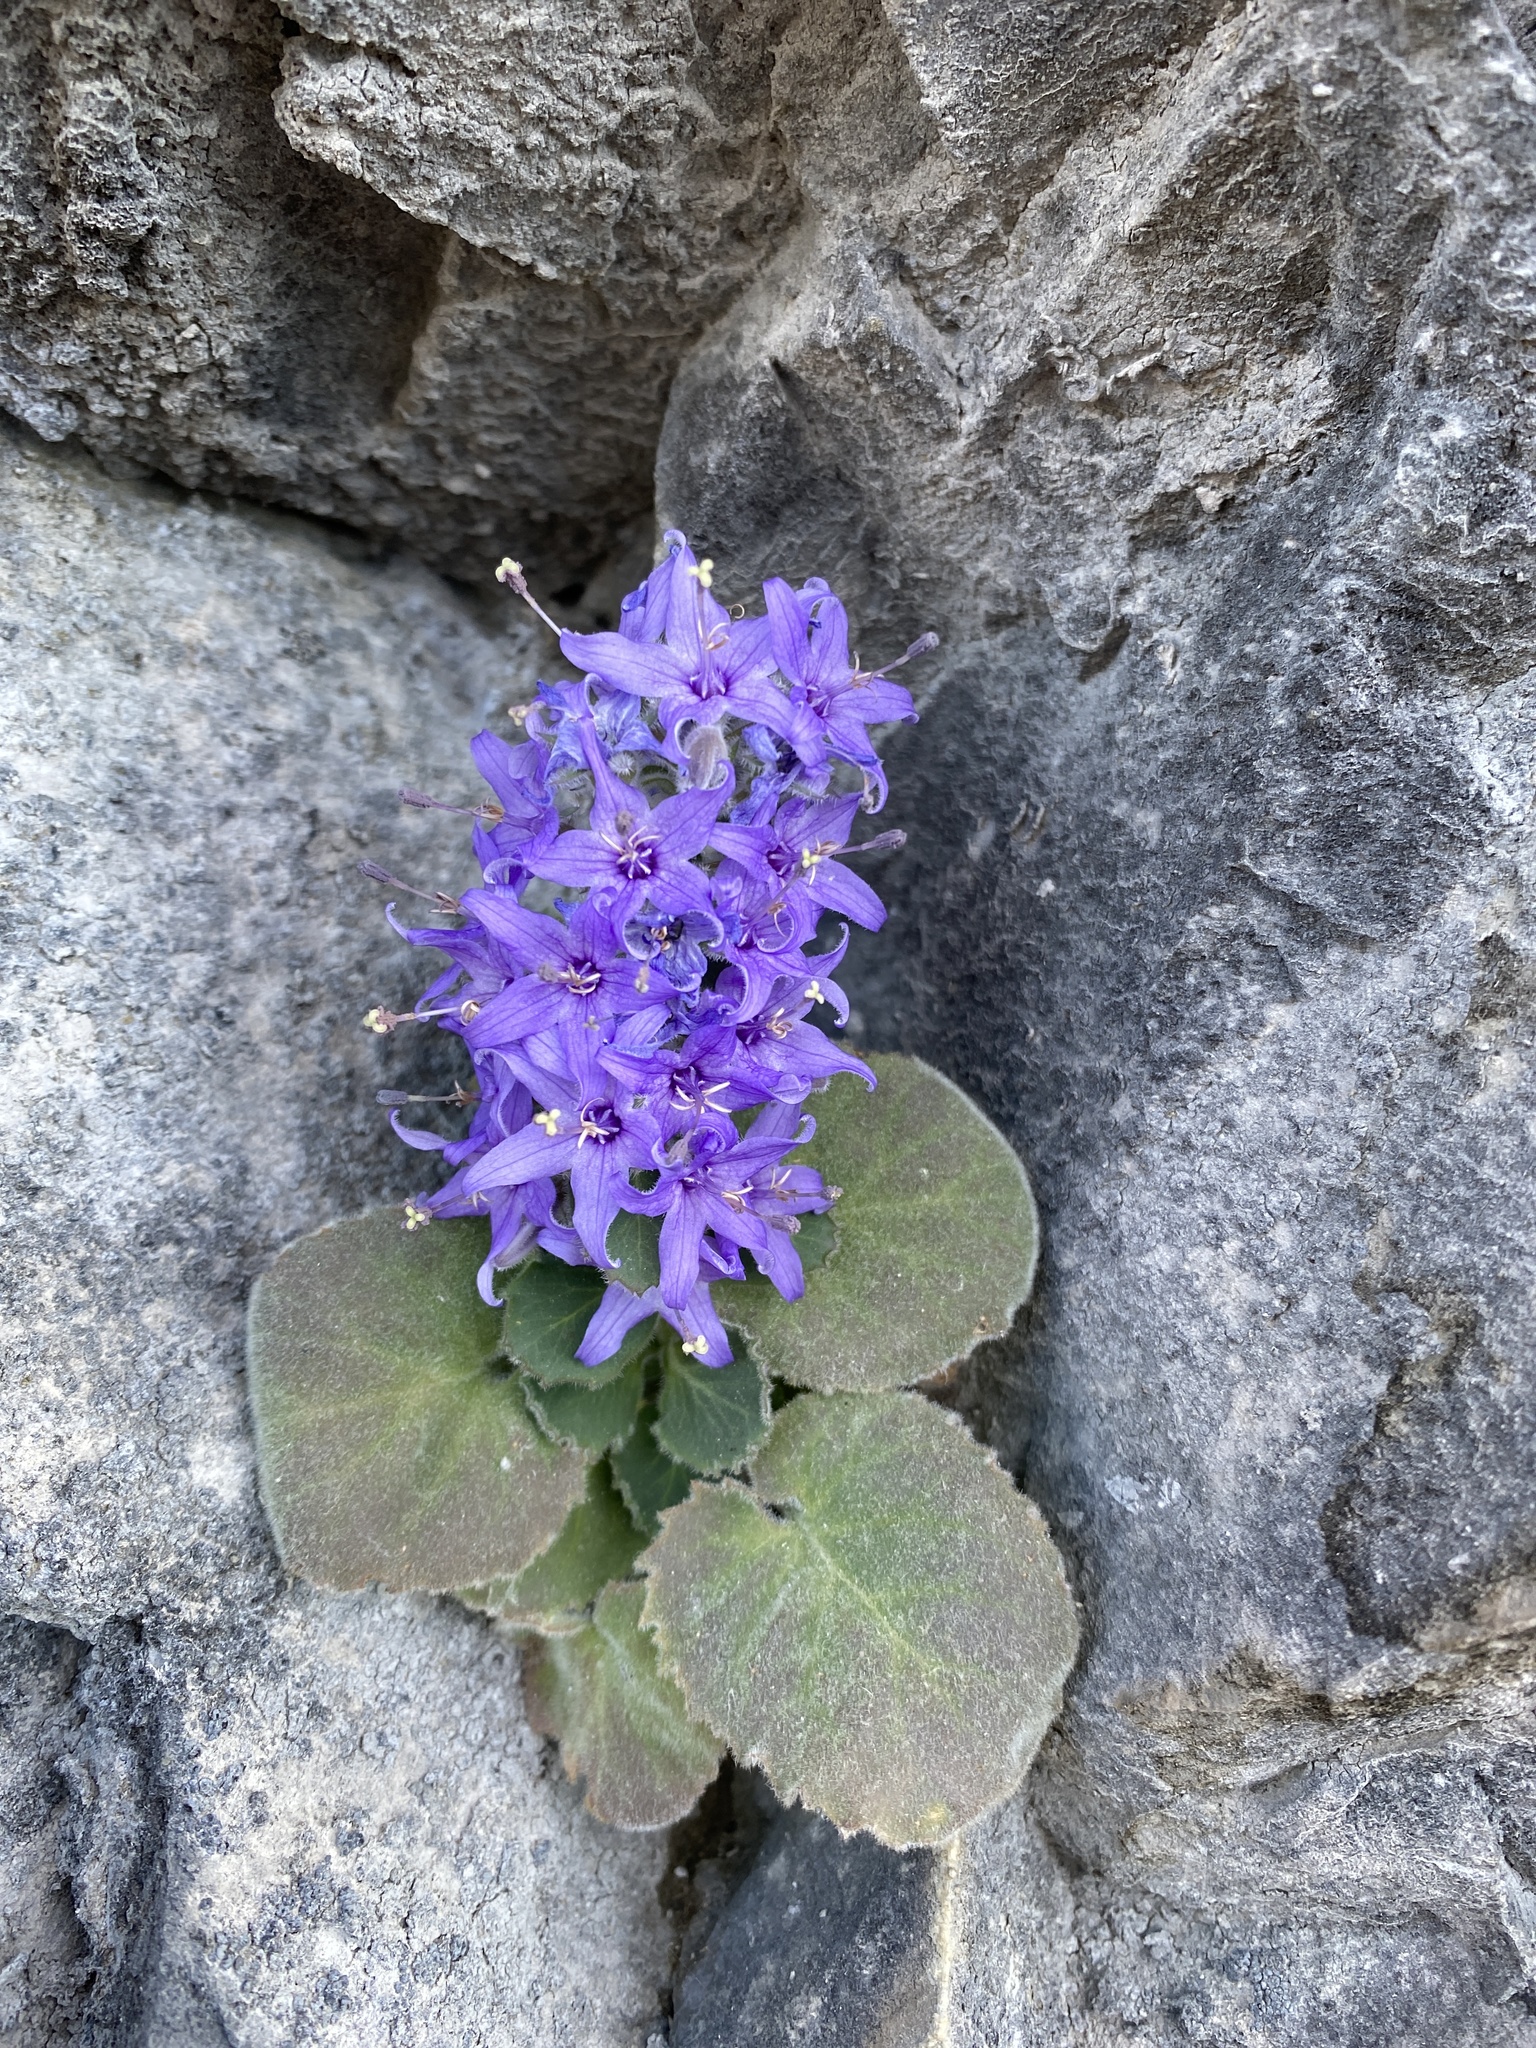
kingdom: Plantae
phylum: Tracheophyta
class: Magnoliopsida
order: Asterales
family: Campanulaceae
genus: Campanula
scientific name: Campanula elatinoides
